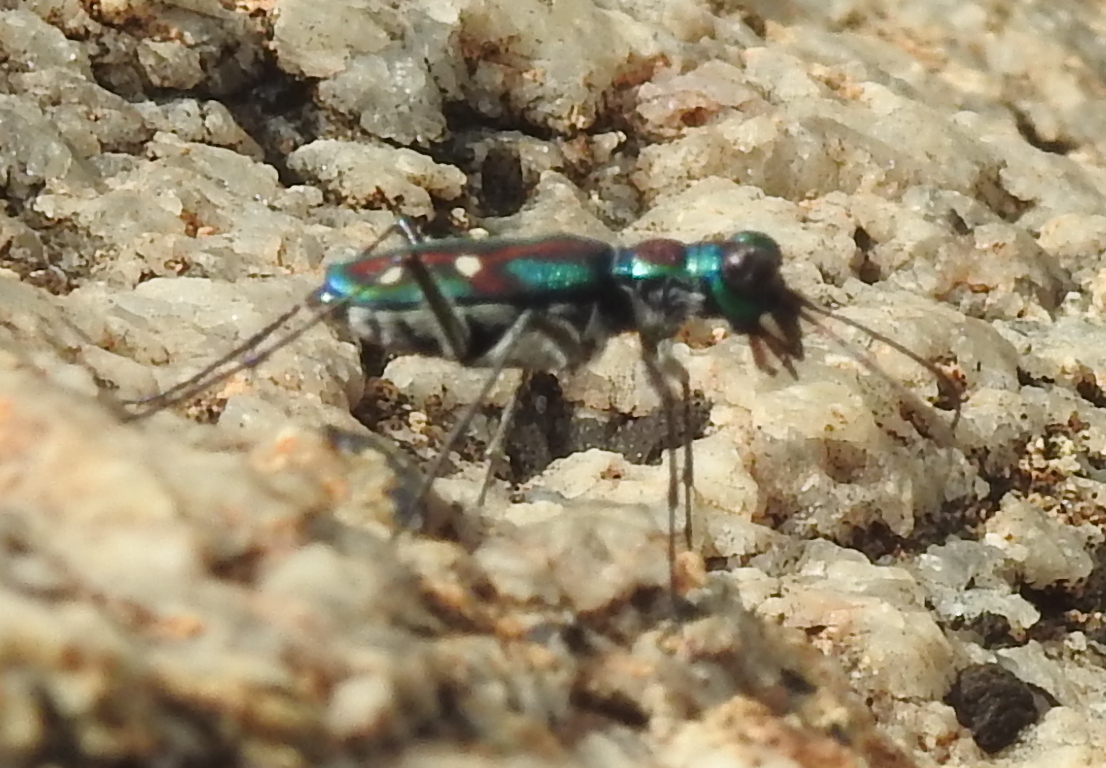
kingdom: Animalia
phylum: Arthropoda
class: Insecta
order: Coleoptera
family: Carabidae
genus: Jansenia
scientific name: Jansenia rugosiceps
